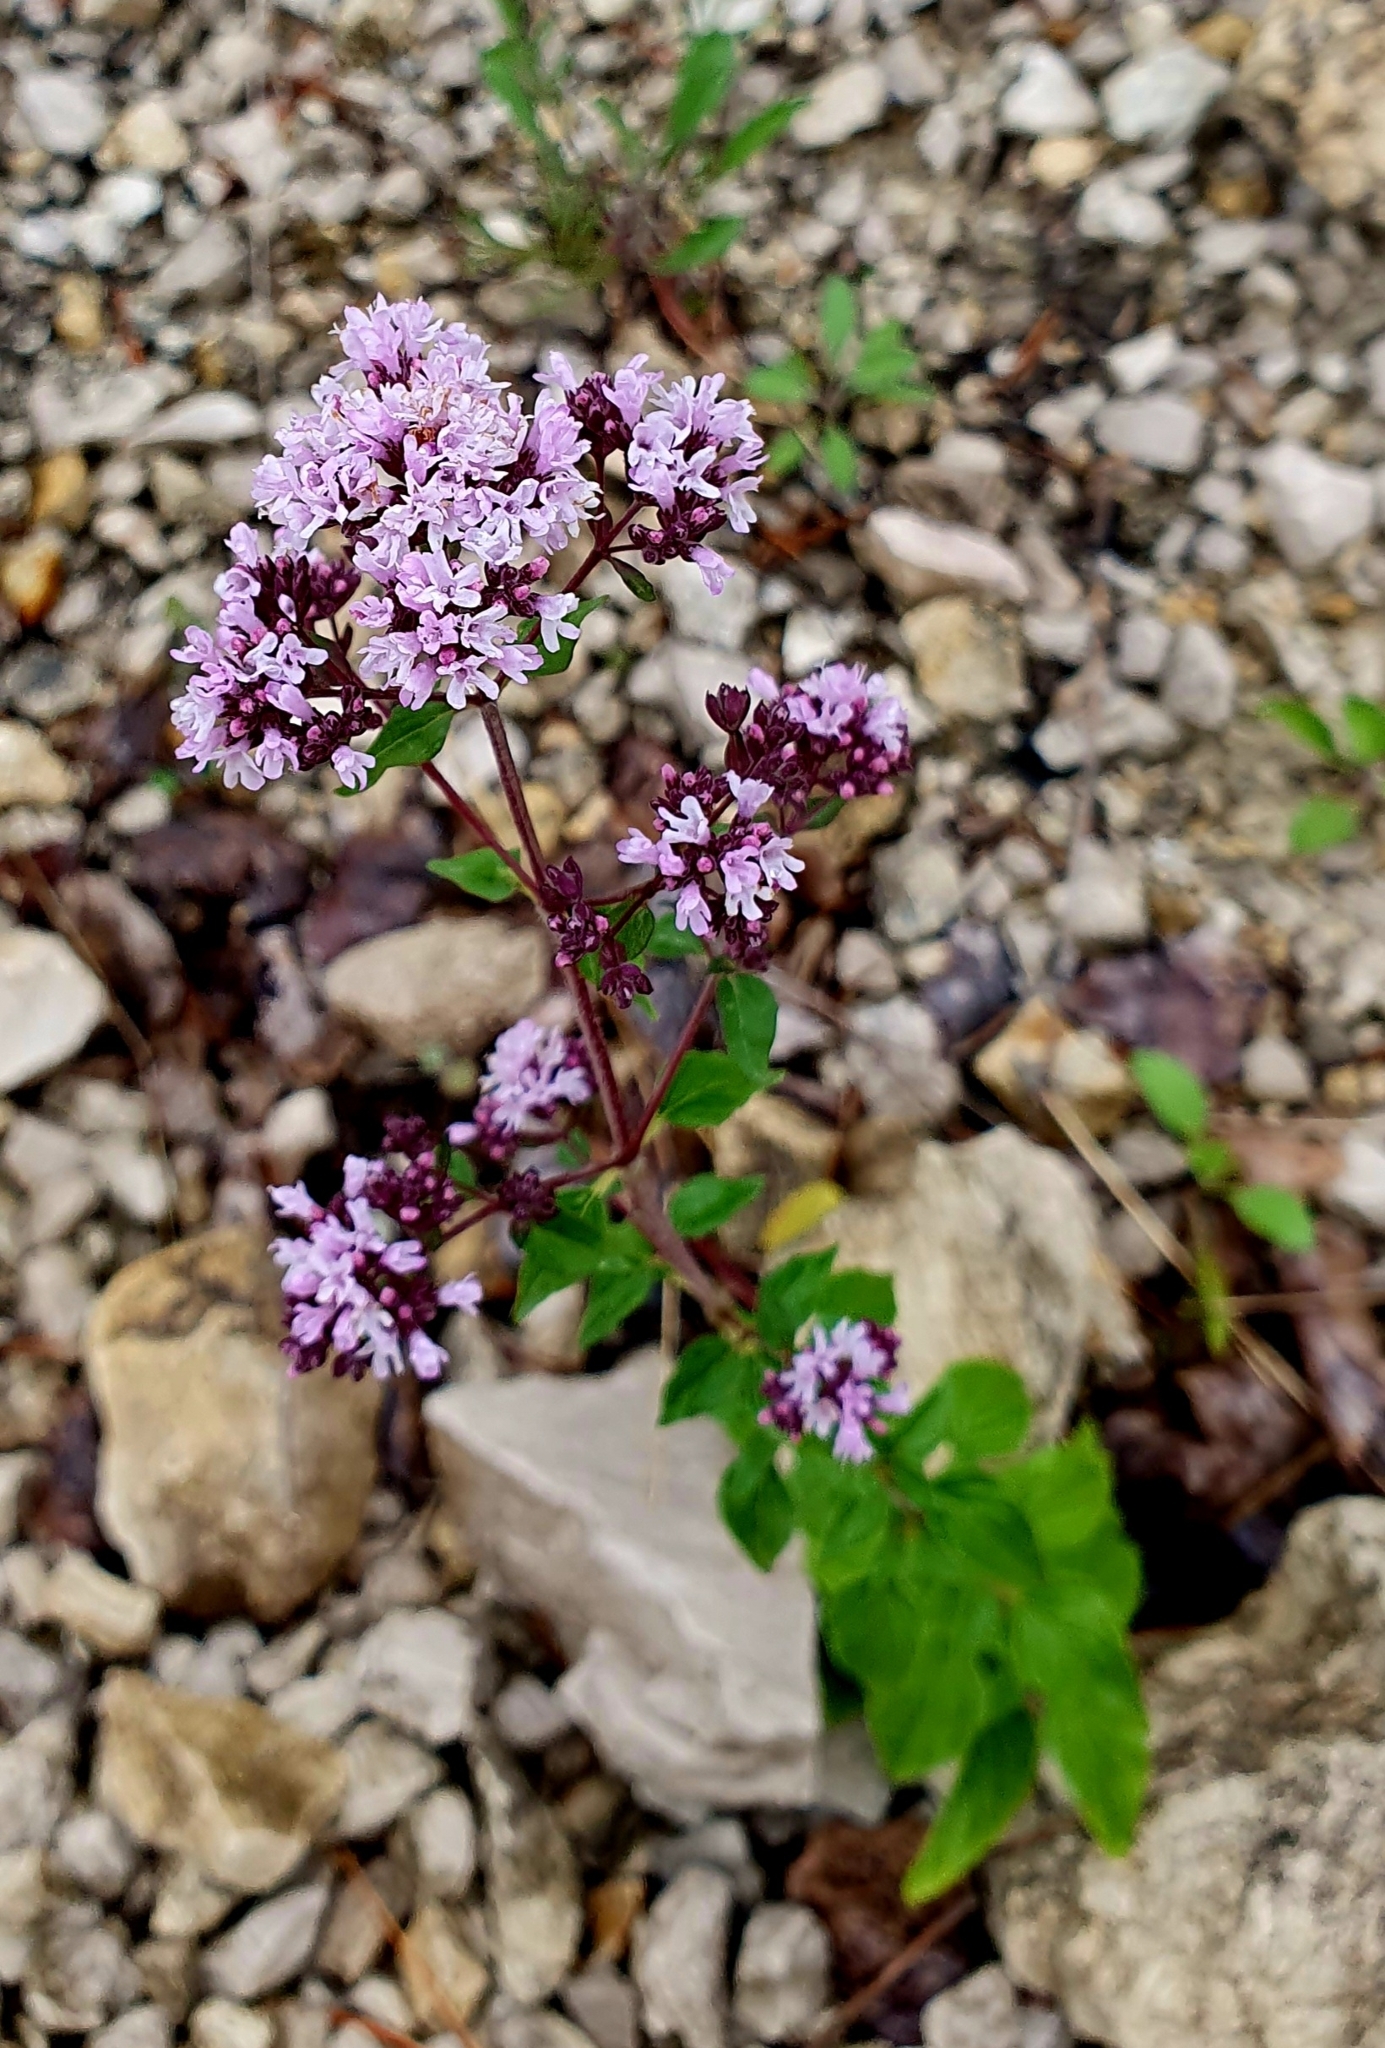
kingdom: Plantae
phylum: Tracheophyta
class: Magnoliopsida
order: Lamiales
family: Lamiaceae
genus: Origanum
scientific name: Origanum vulgare
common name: Wild marjoram
